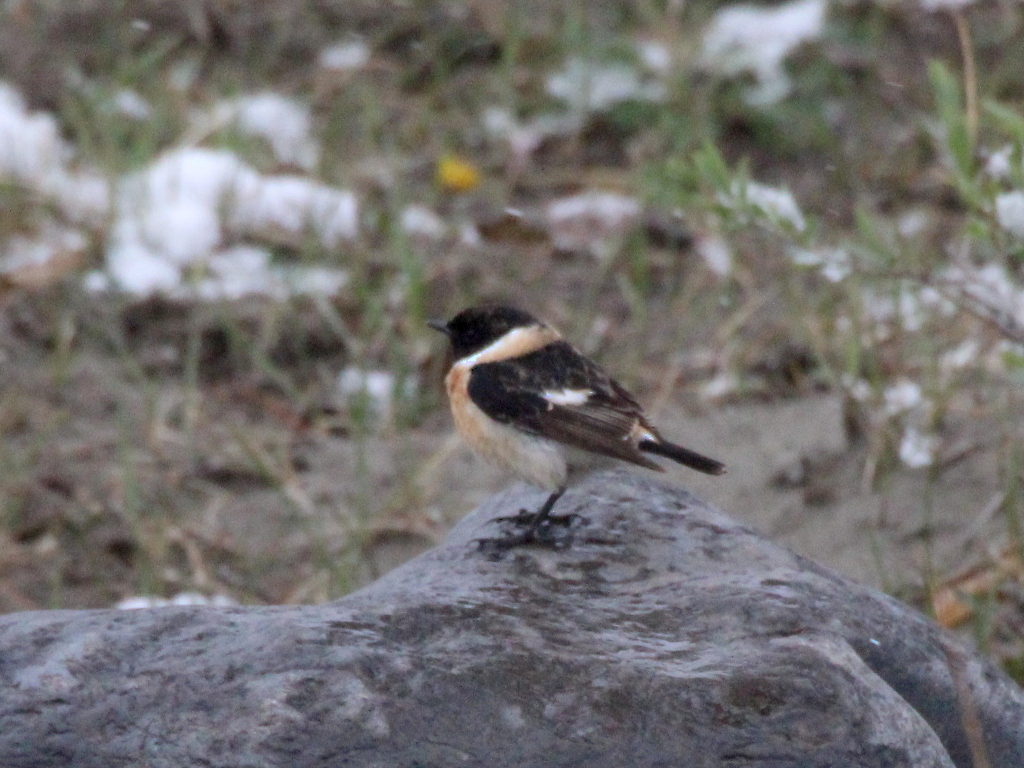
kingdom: Animalia
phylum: Chordata
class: Aves
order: Passeriformes
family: Muscicapidae
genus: Saxicola
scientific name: Saxicola maurus
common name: Siberian stonechat
